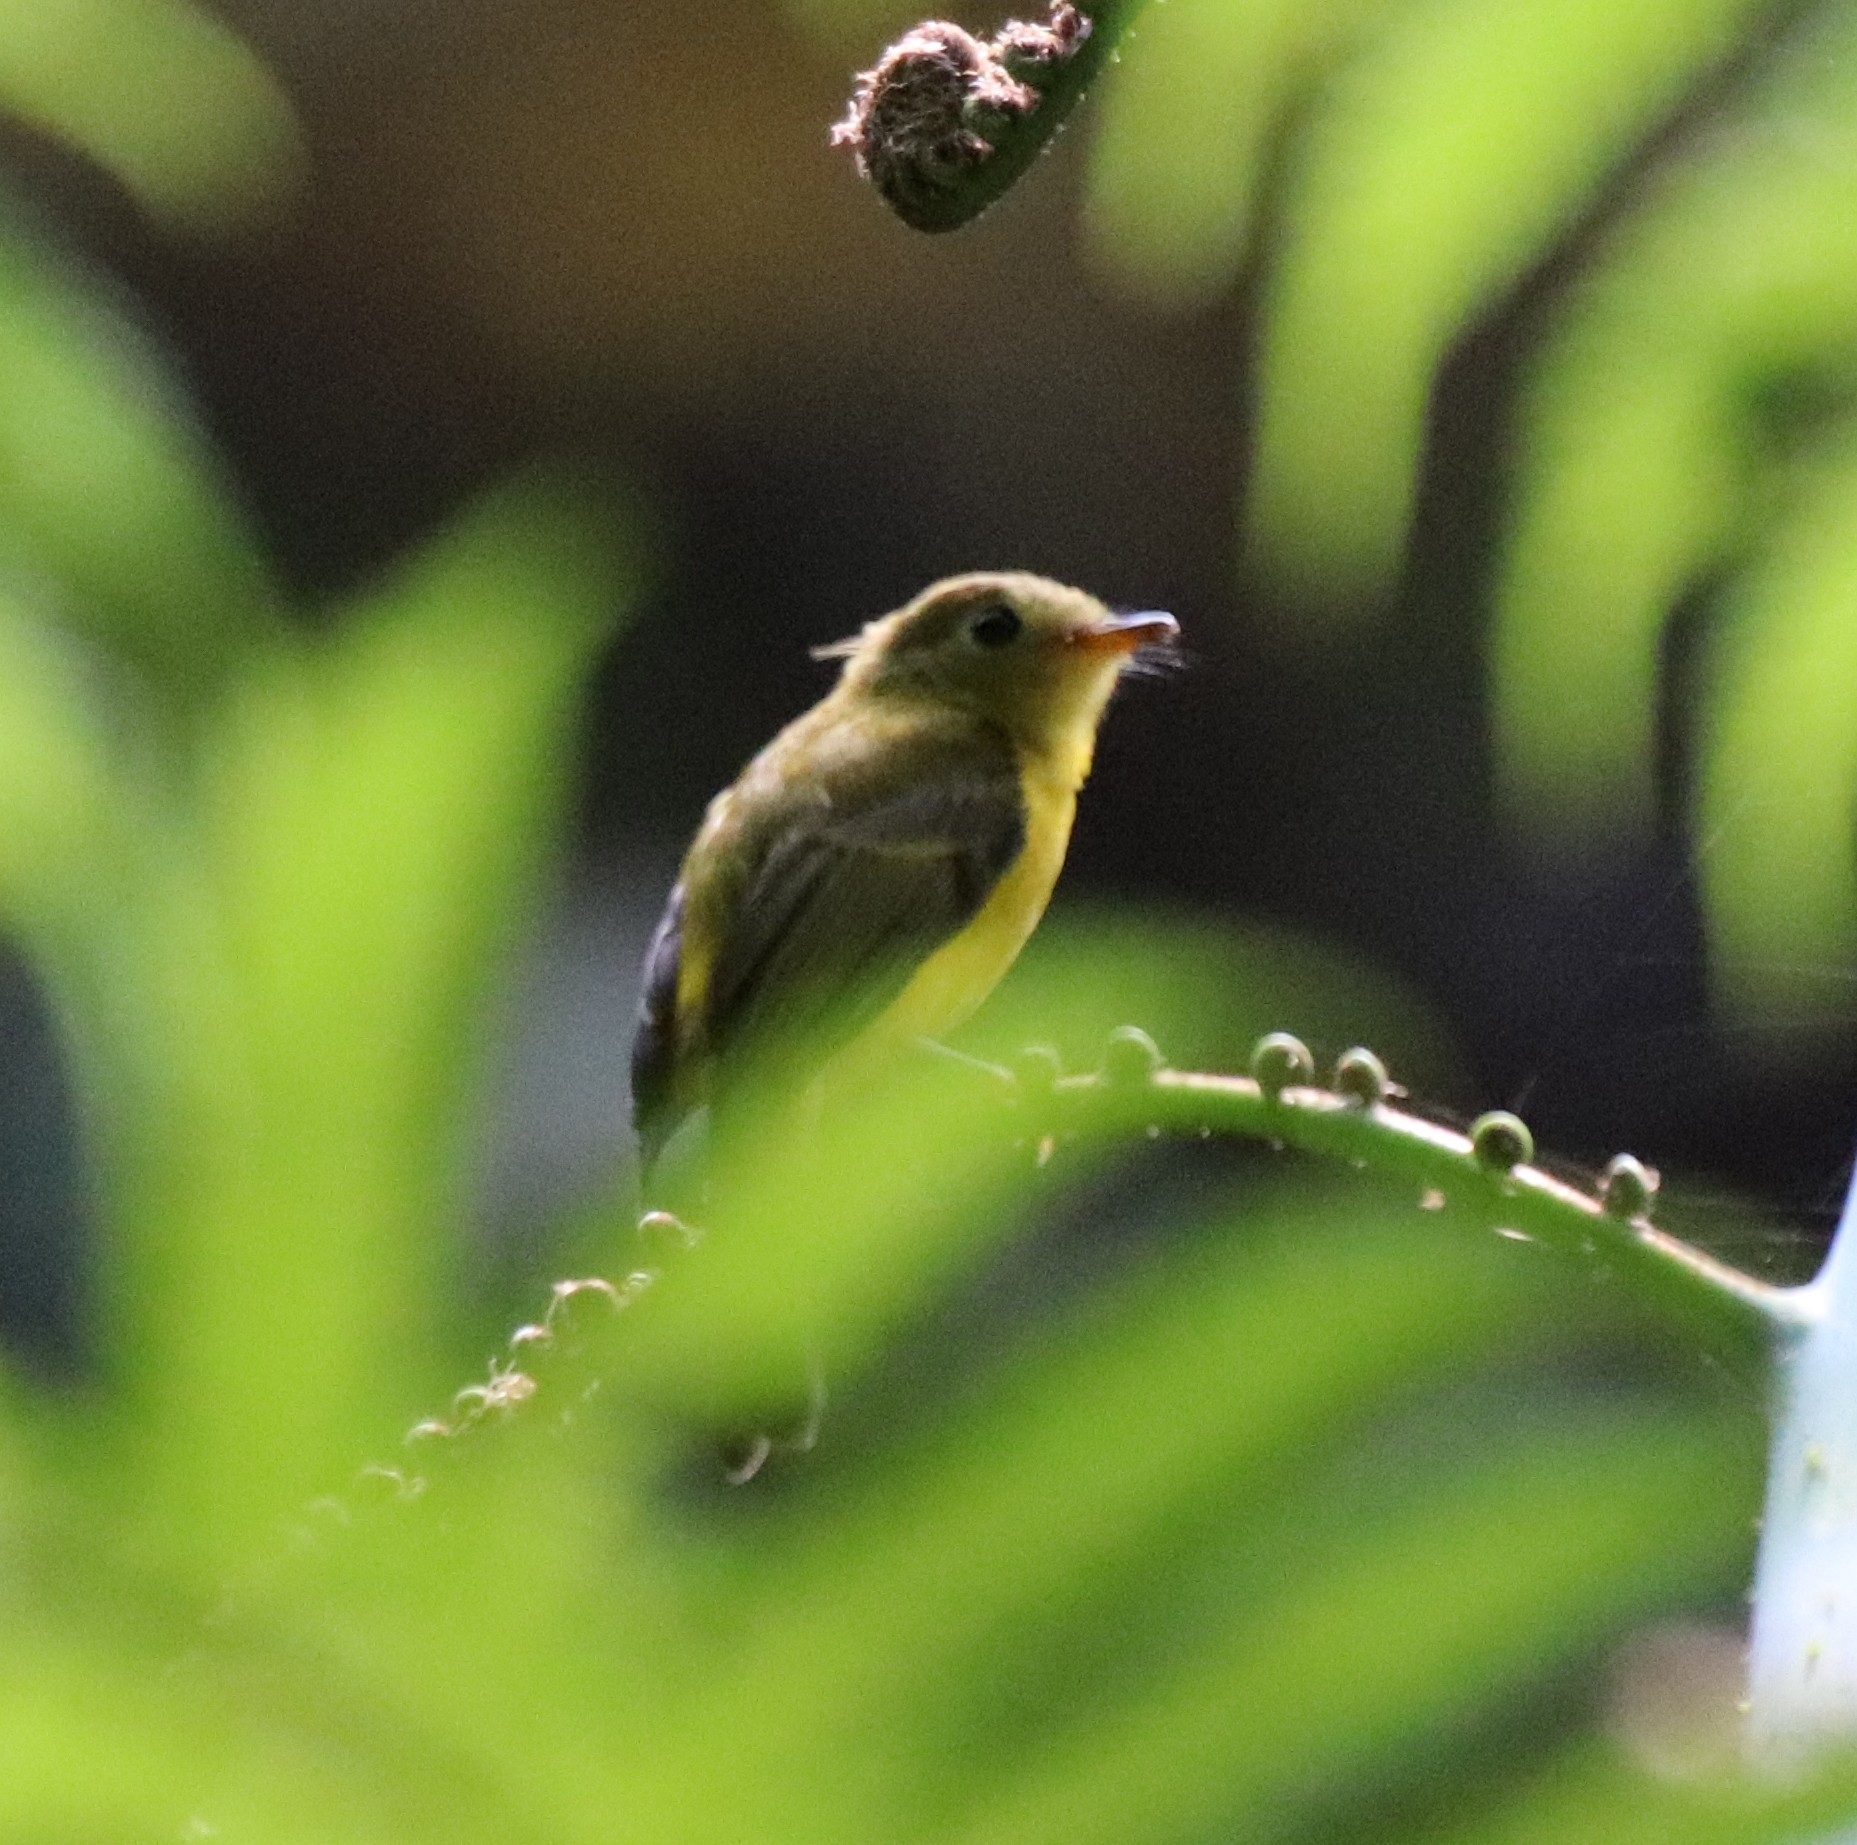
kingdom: Animalia
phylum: Chordata
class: Aves
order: Passeriformes
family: Stenostiridae
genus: Culicicapa
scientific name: Culicicapa helianthea
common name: Citrine canary-flycatcher
